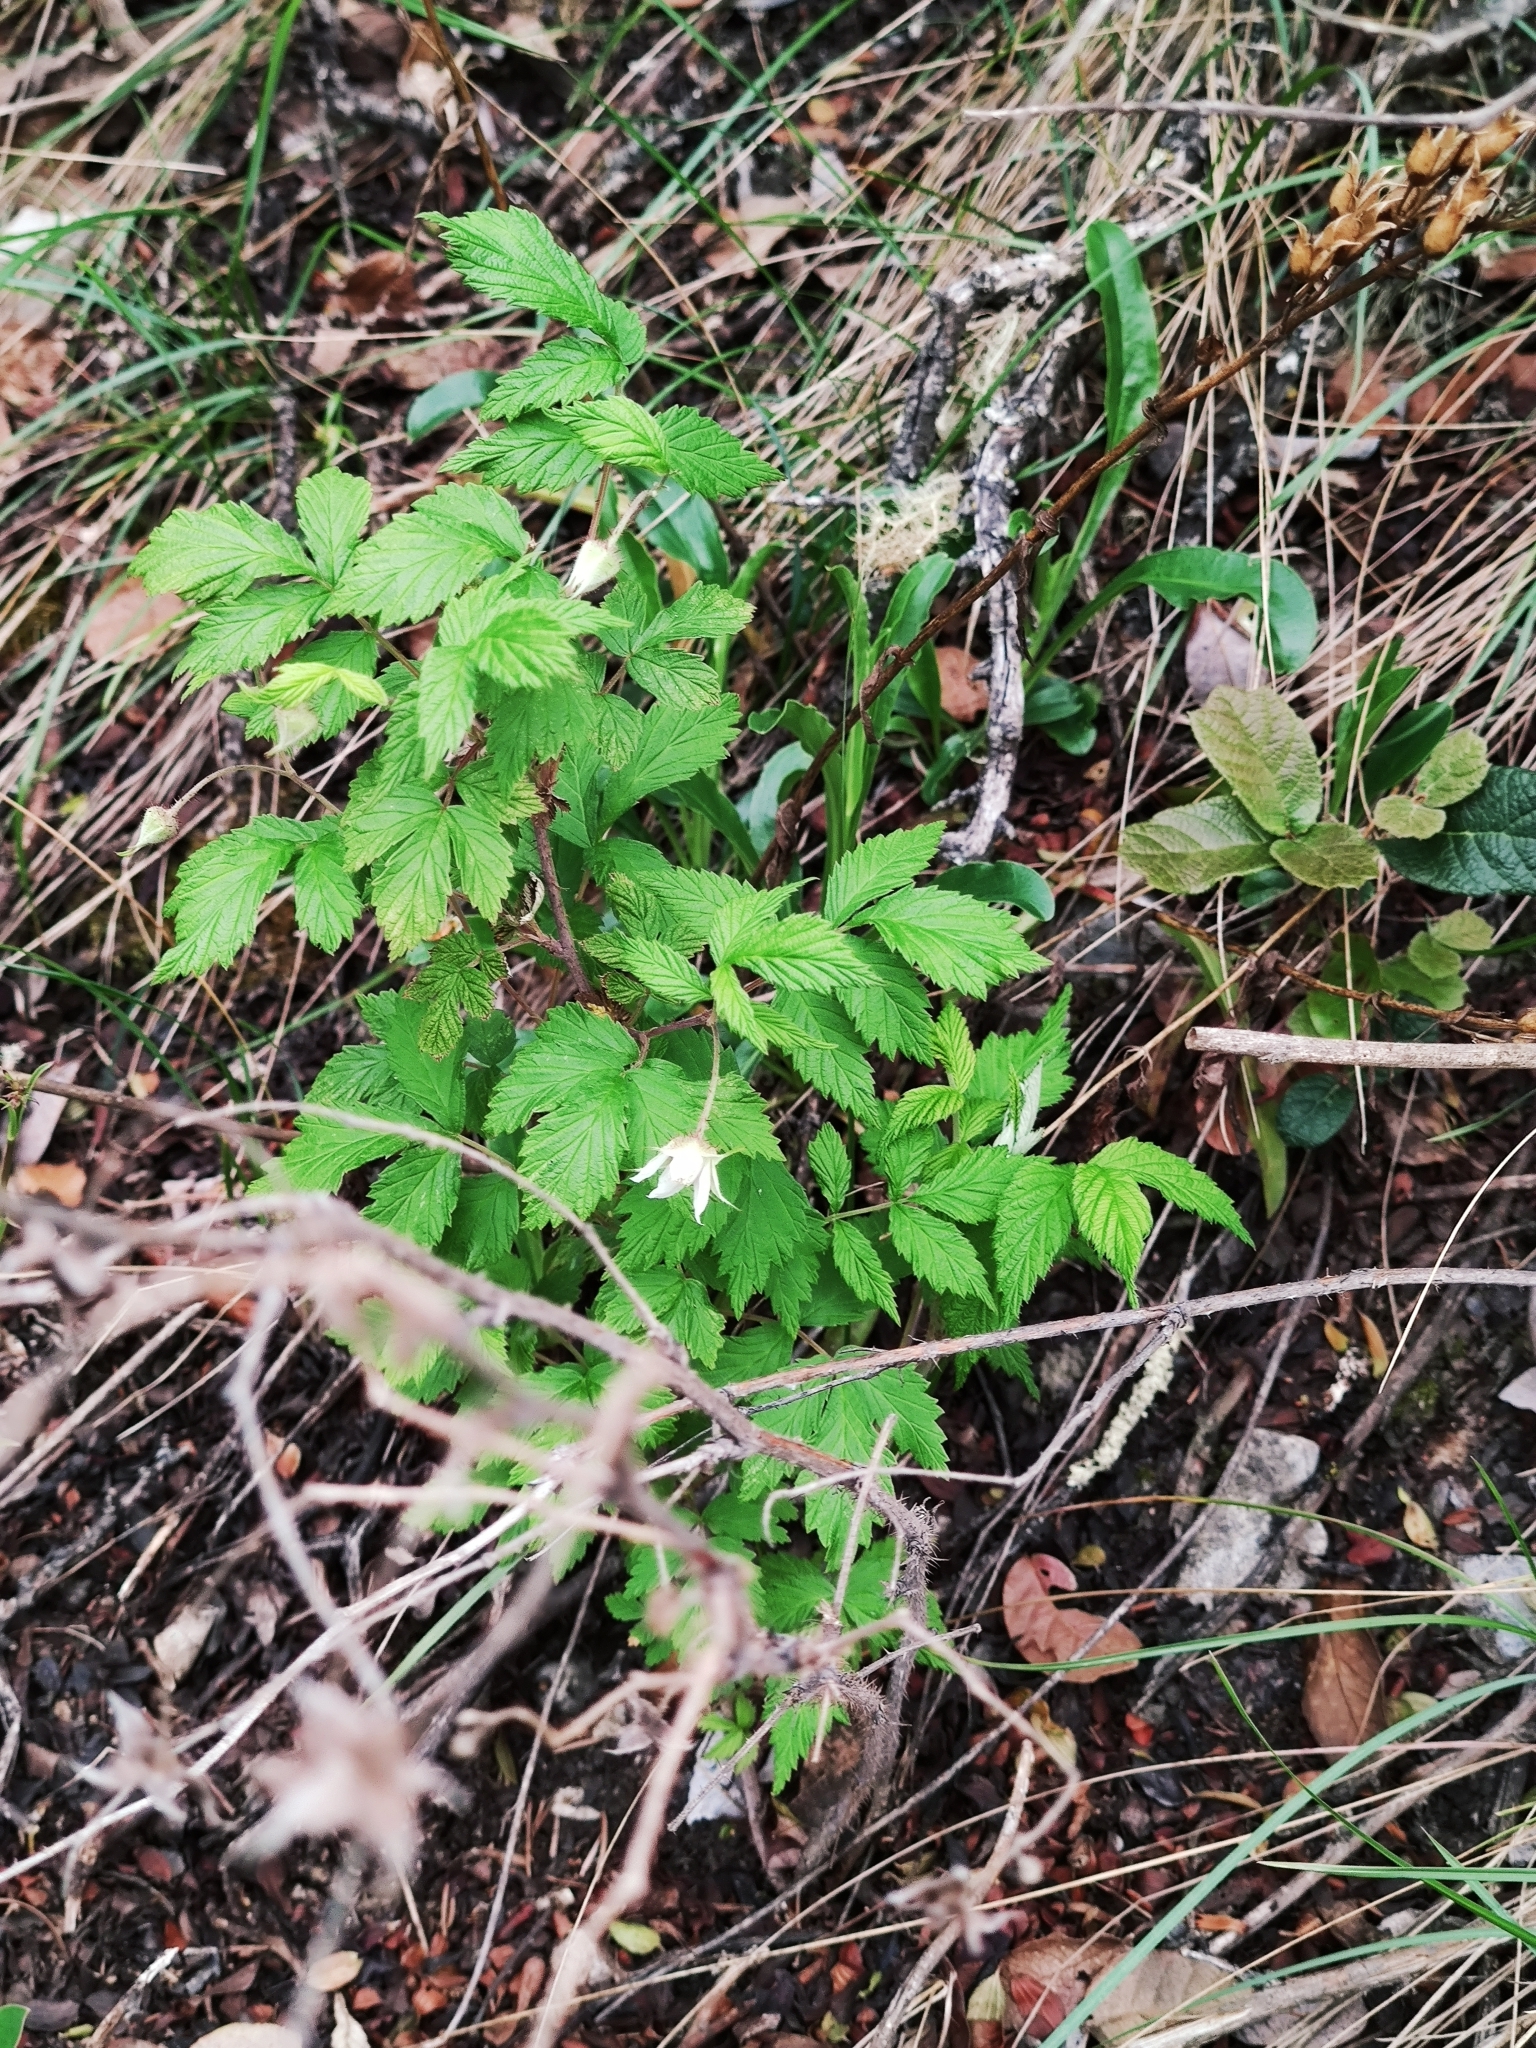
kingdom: Plantae
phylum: Tracheophyta
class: Magnoliopsida
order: Rosales
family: Rosaceae
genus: Rubus
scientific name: Rubus idaeus
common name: Raspberry
